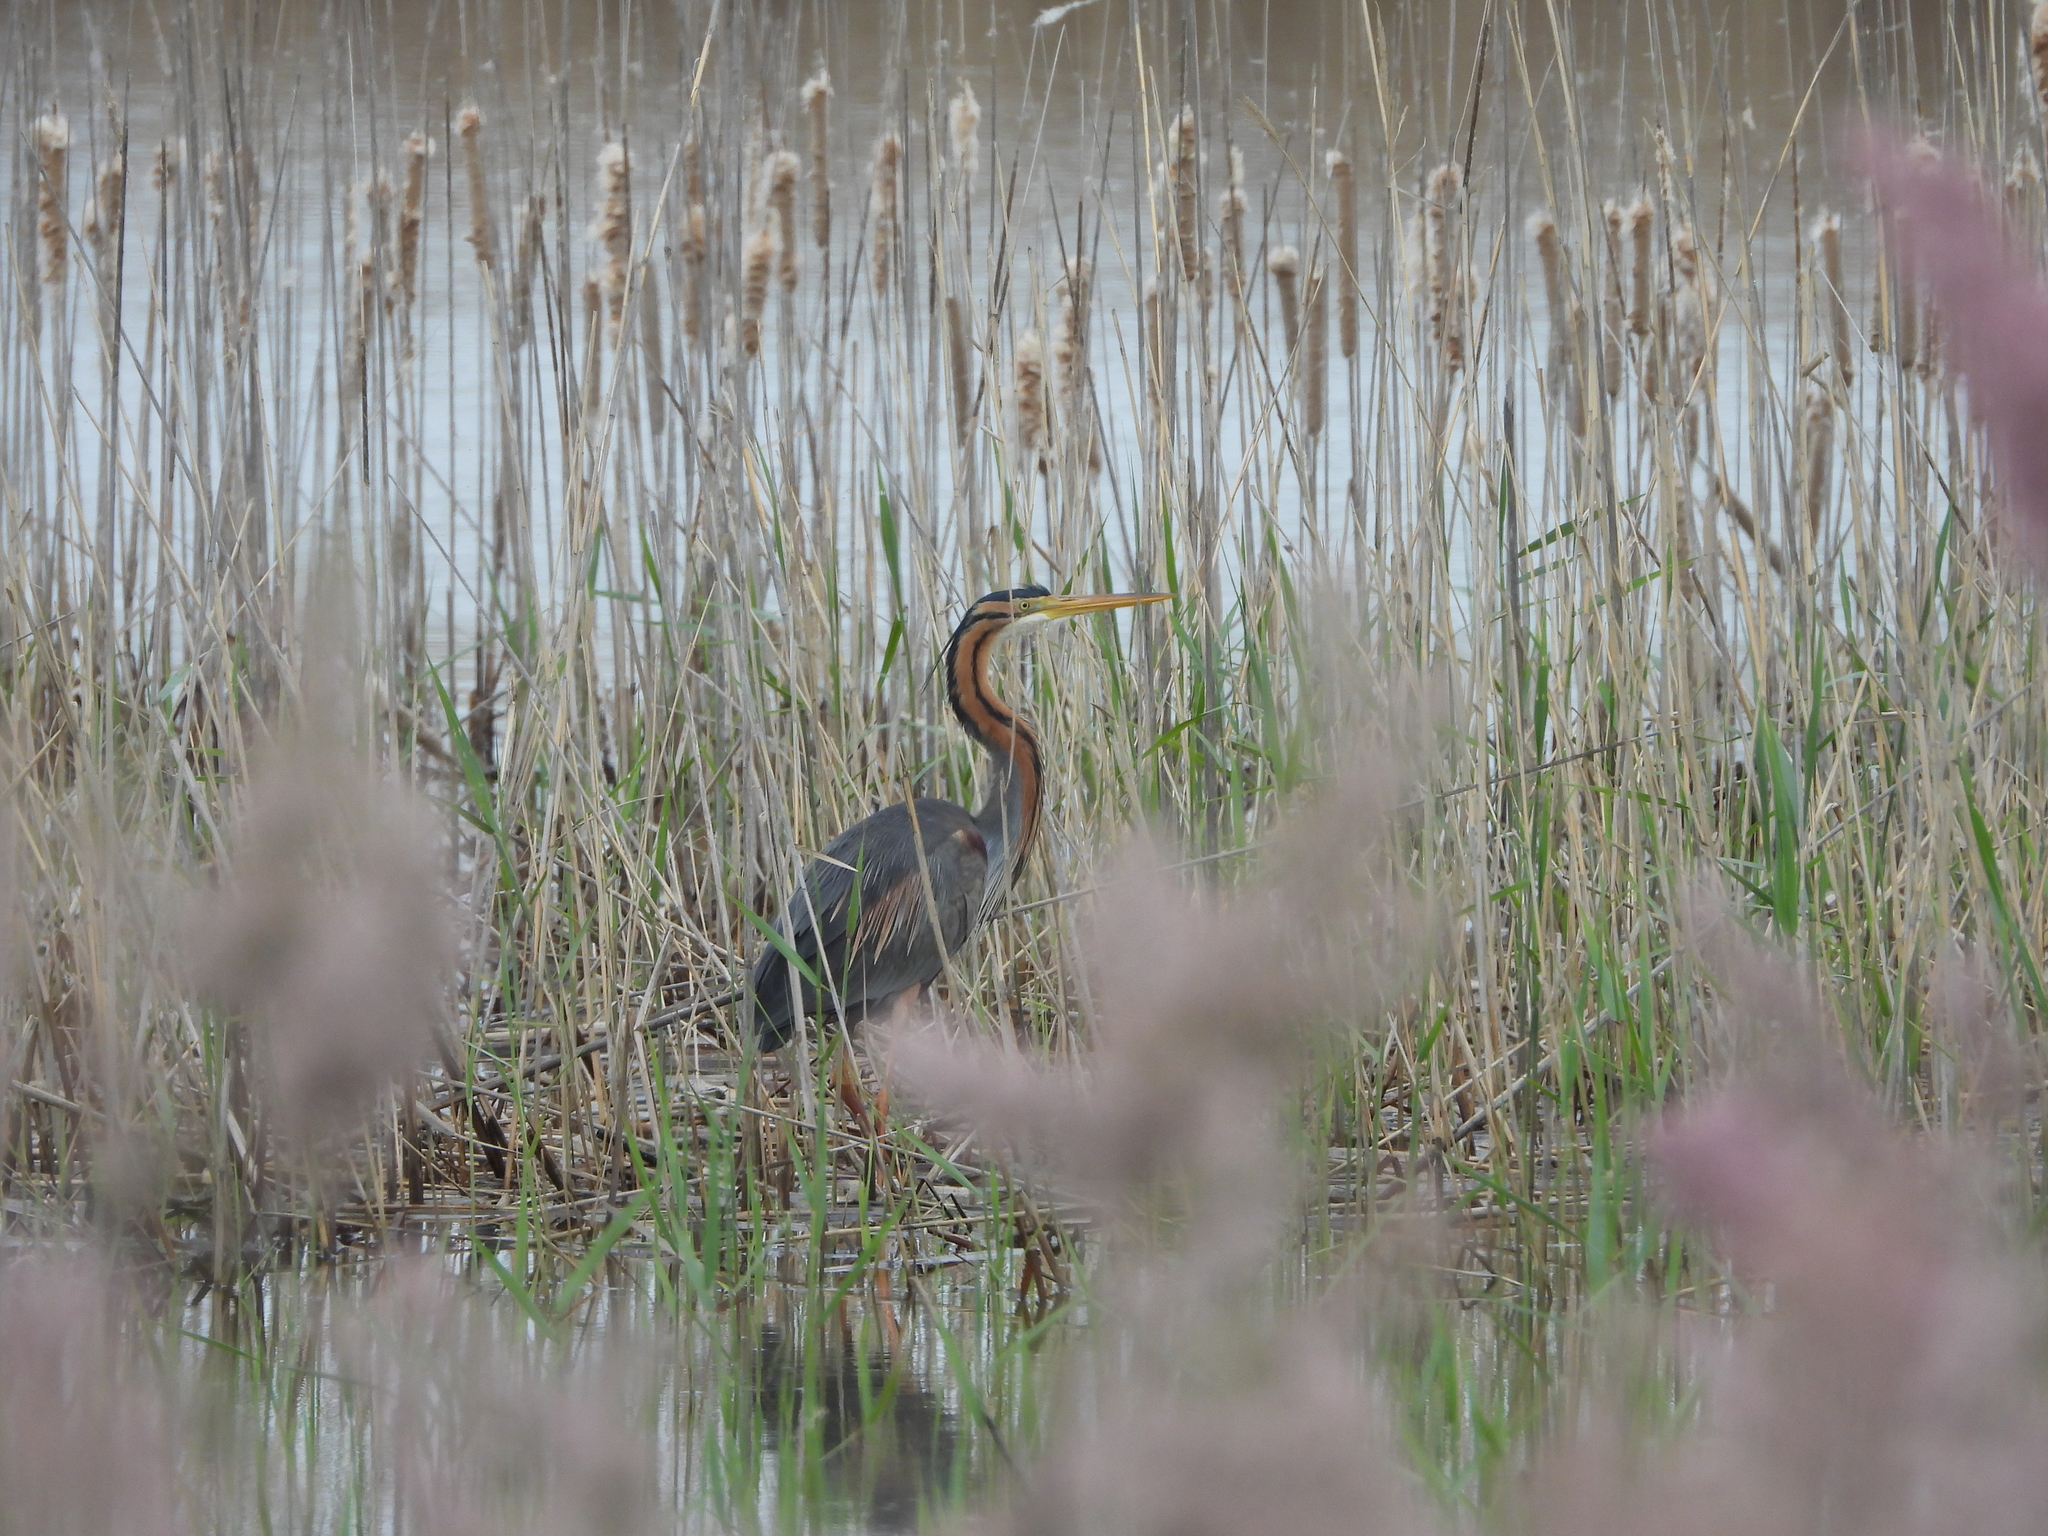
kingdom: Animalia
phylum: Chordata
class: Aves
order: Pelecaniformes
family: Ardeidae
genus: Ardea
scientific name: Ardea purpurea
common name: Purple heron
